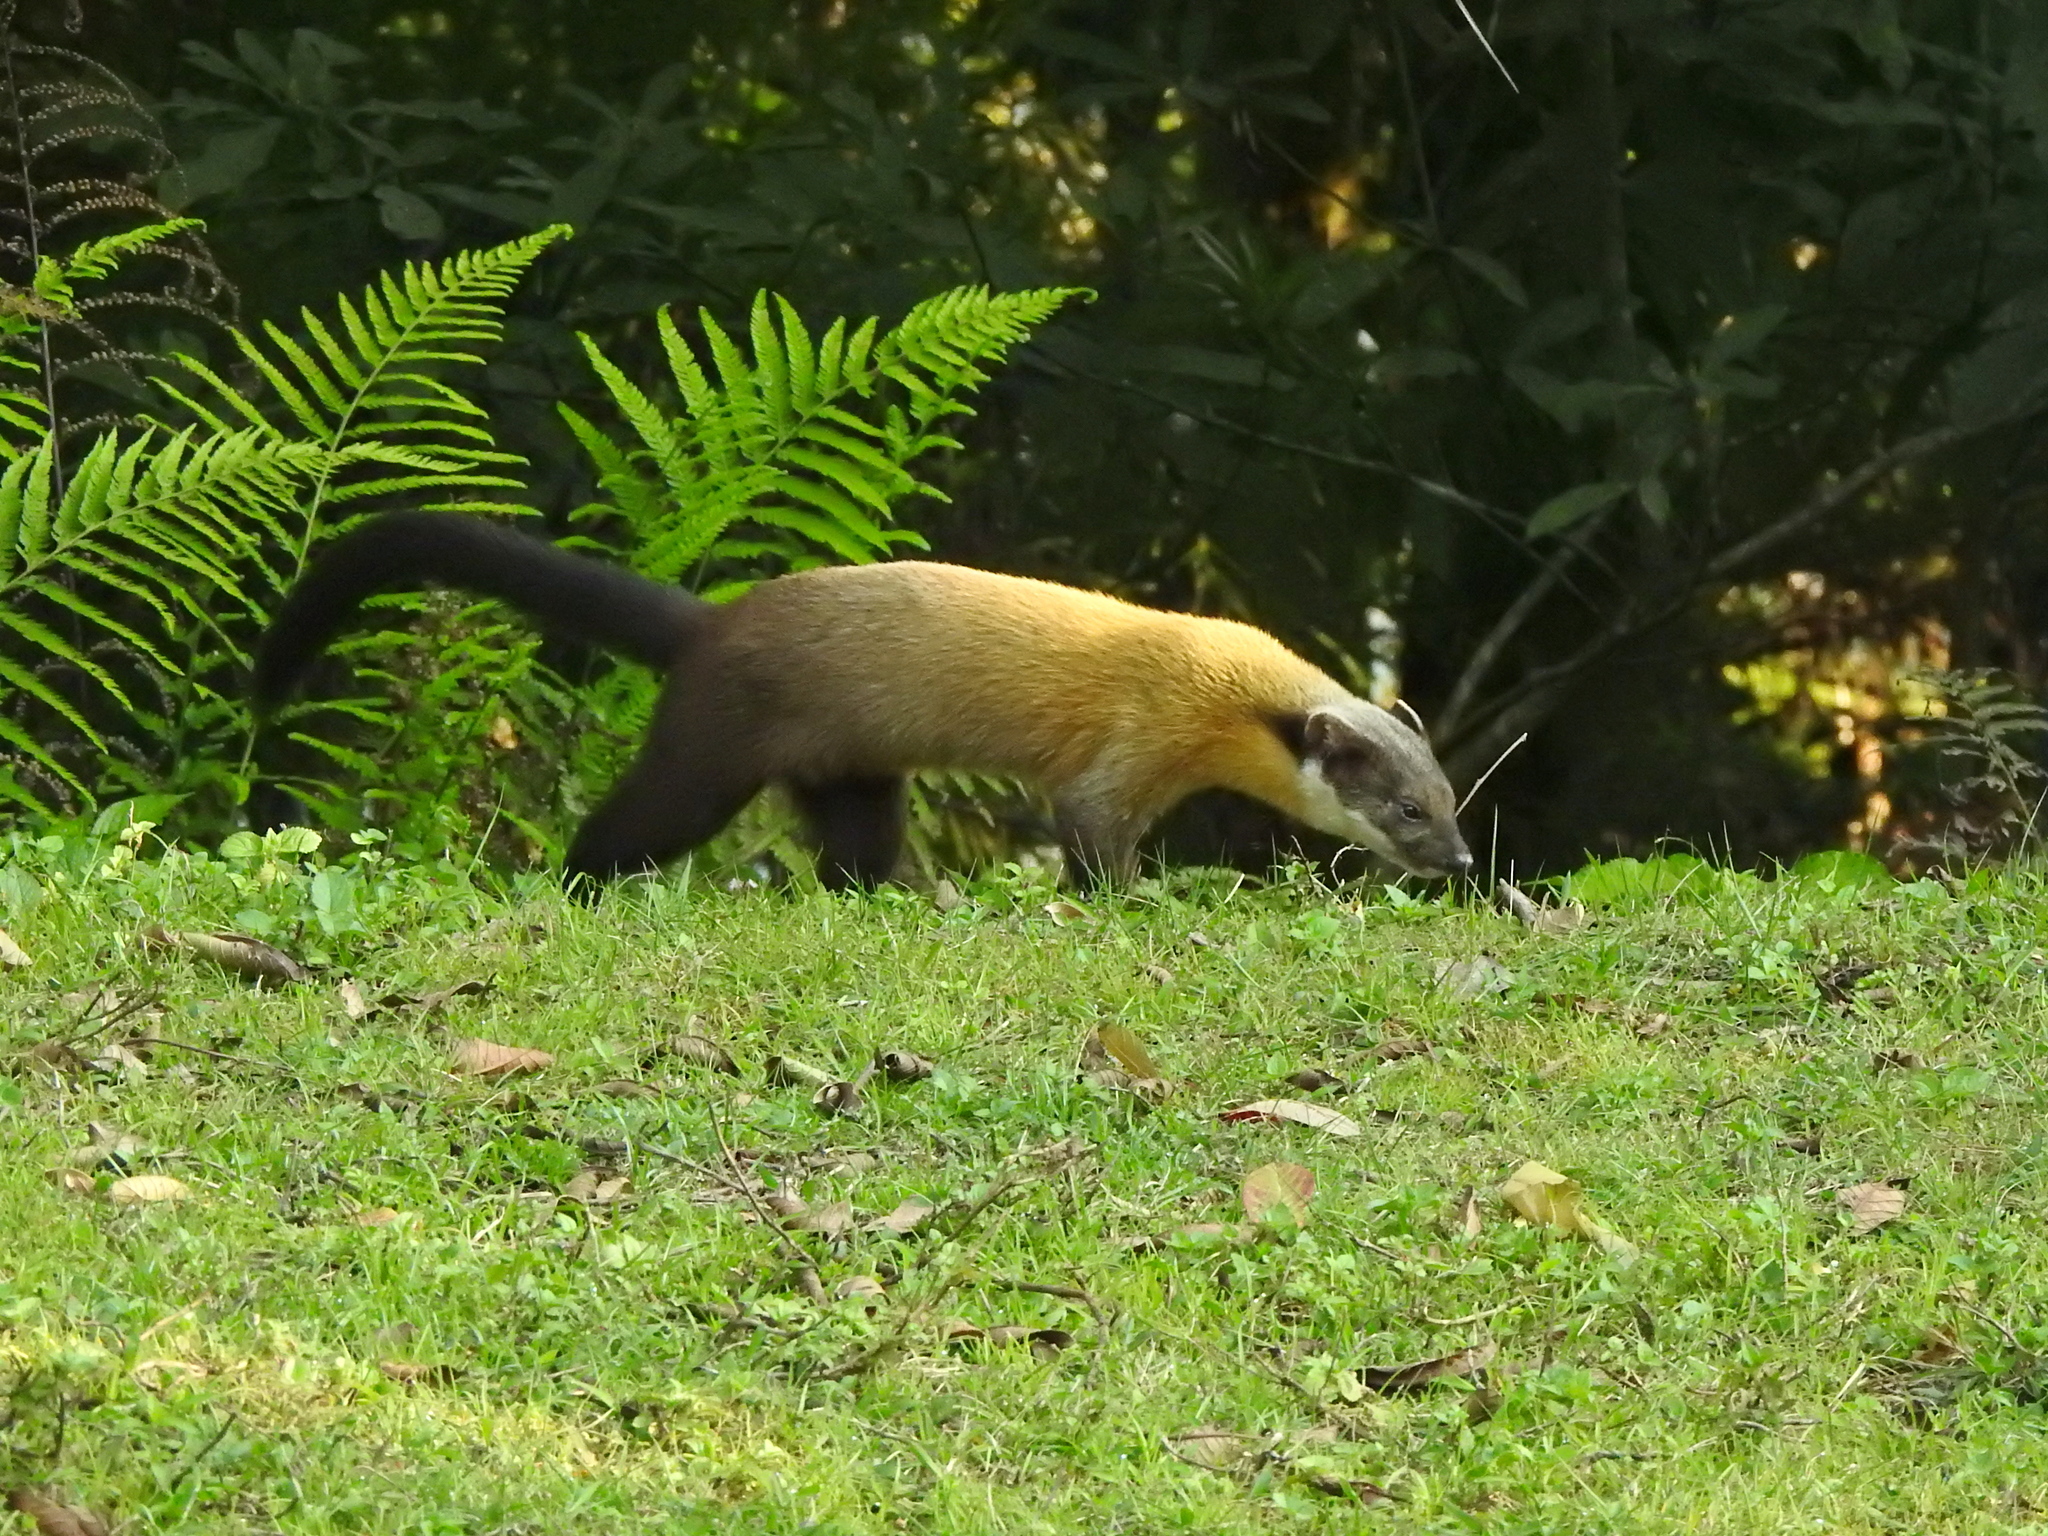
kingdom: Animalia
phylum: Chordata
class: Mammalia
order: Carnivora
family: Mustelidae
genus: Martes
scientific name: Martes flavigula
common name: Yellow-throated marten
